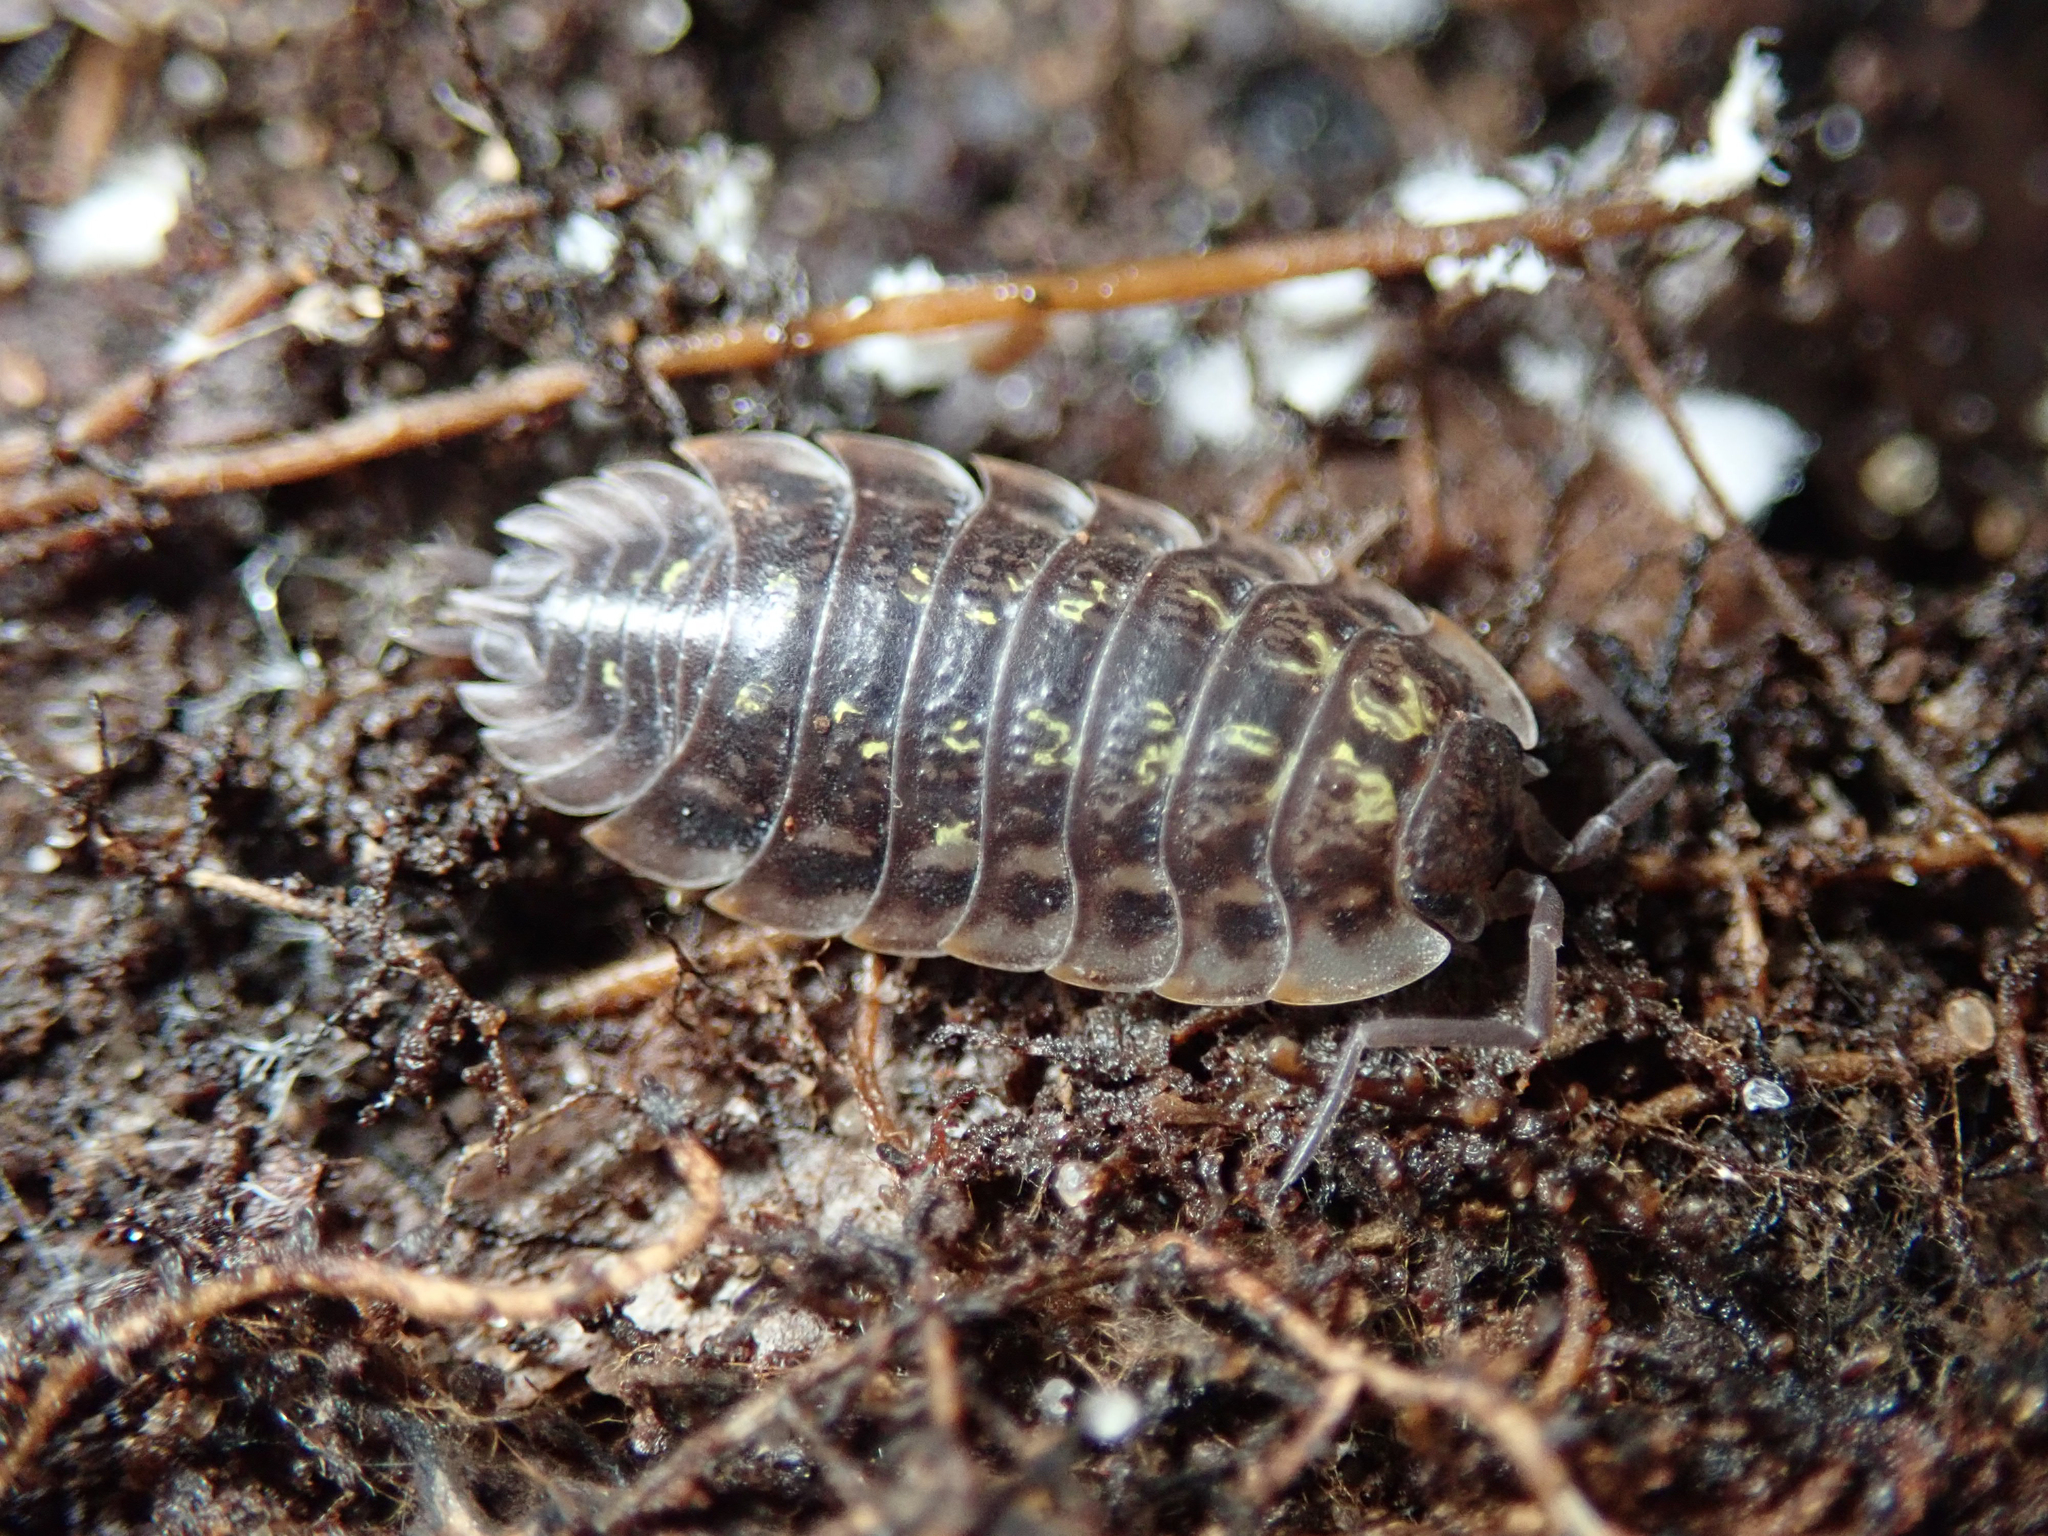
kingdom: Animalia
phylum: Arthropoda
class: Malacostraca
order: Isopoda
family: Oniscidae
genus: Oniscus
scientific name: Oniscus asellus
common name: Common shiny woodlouse
